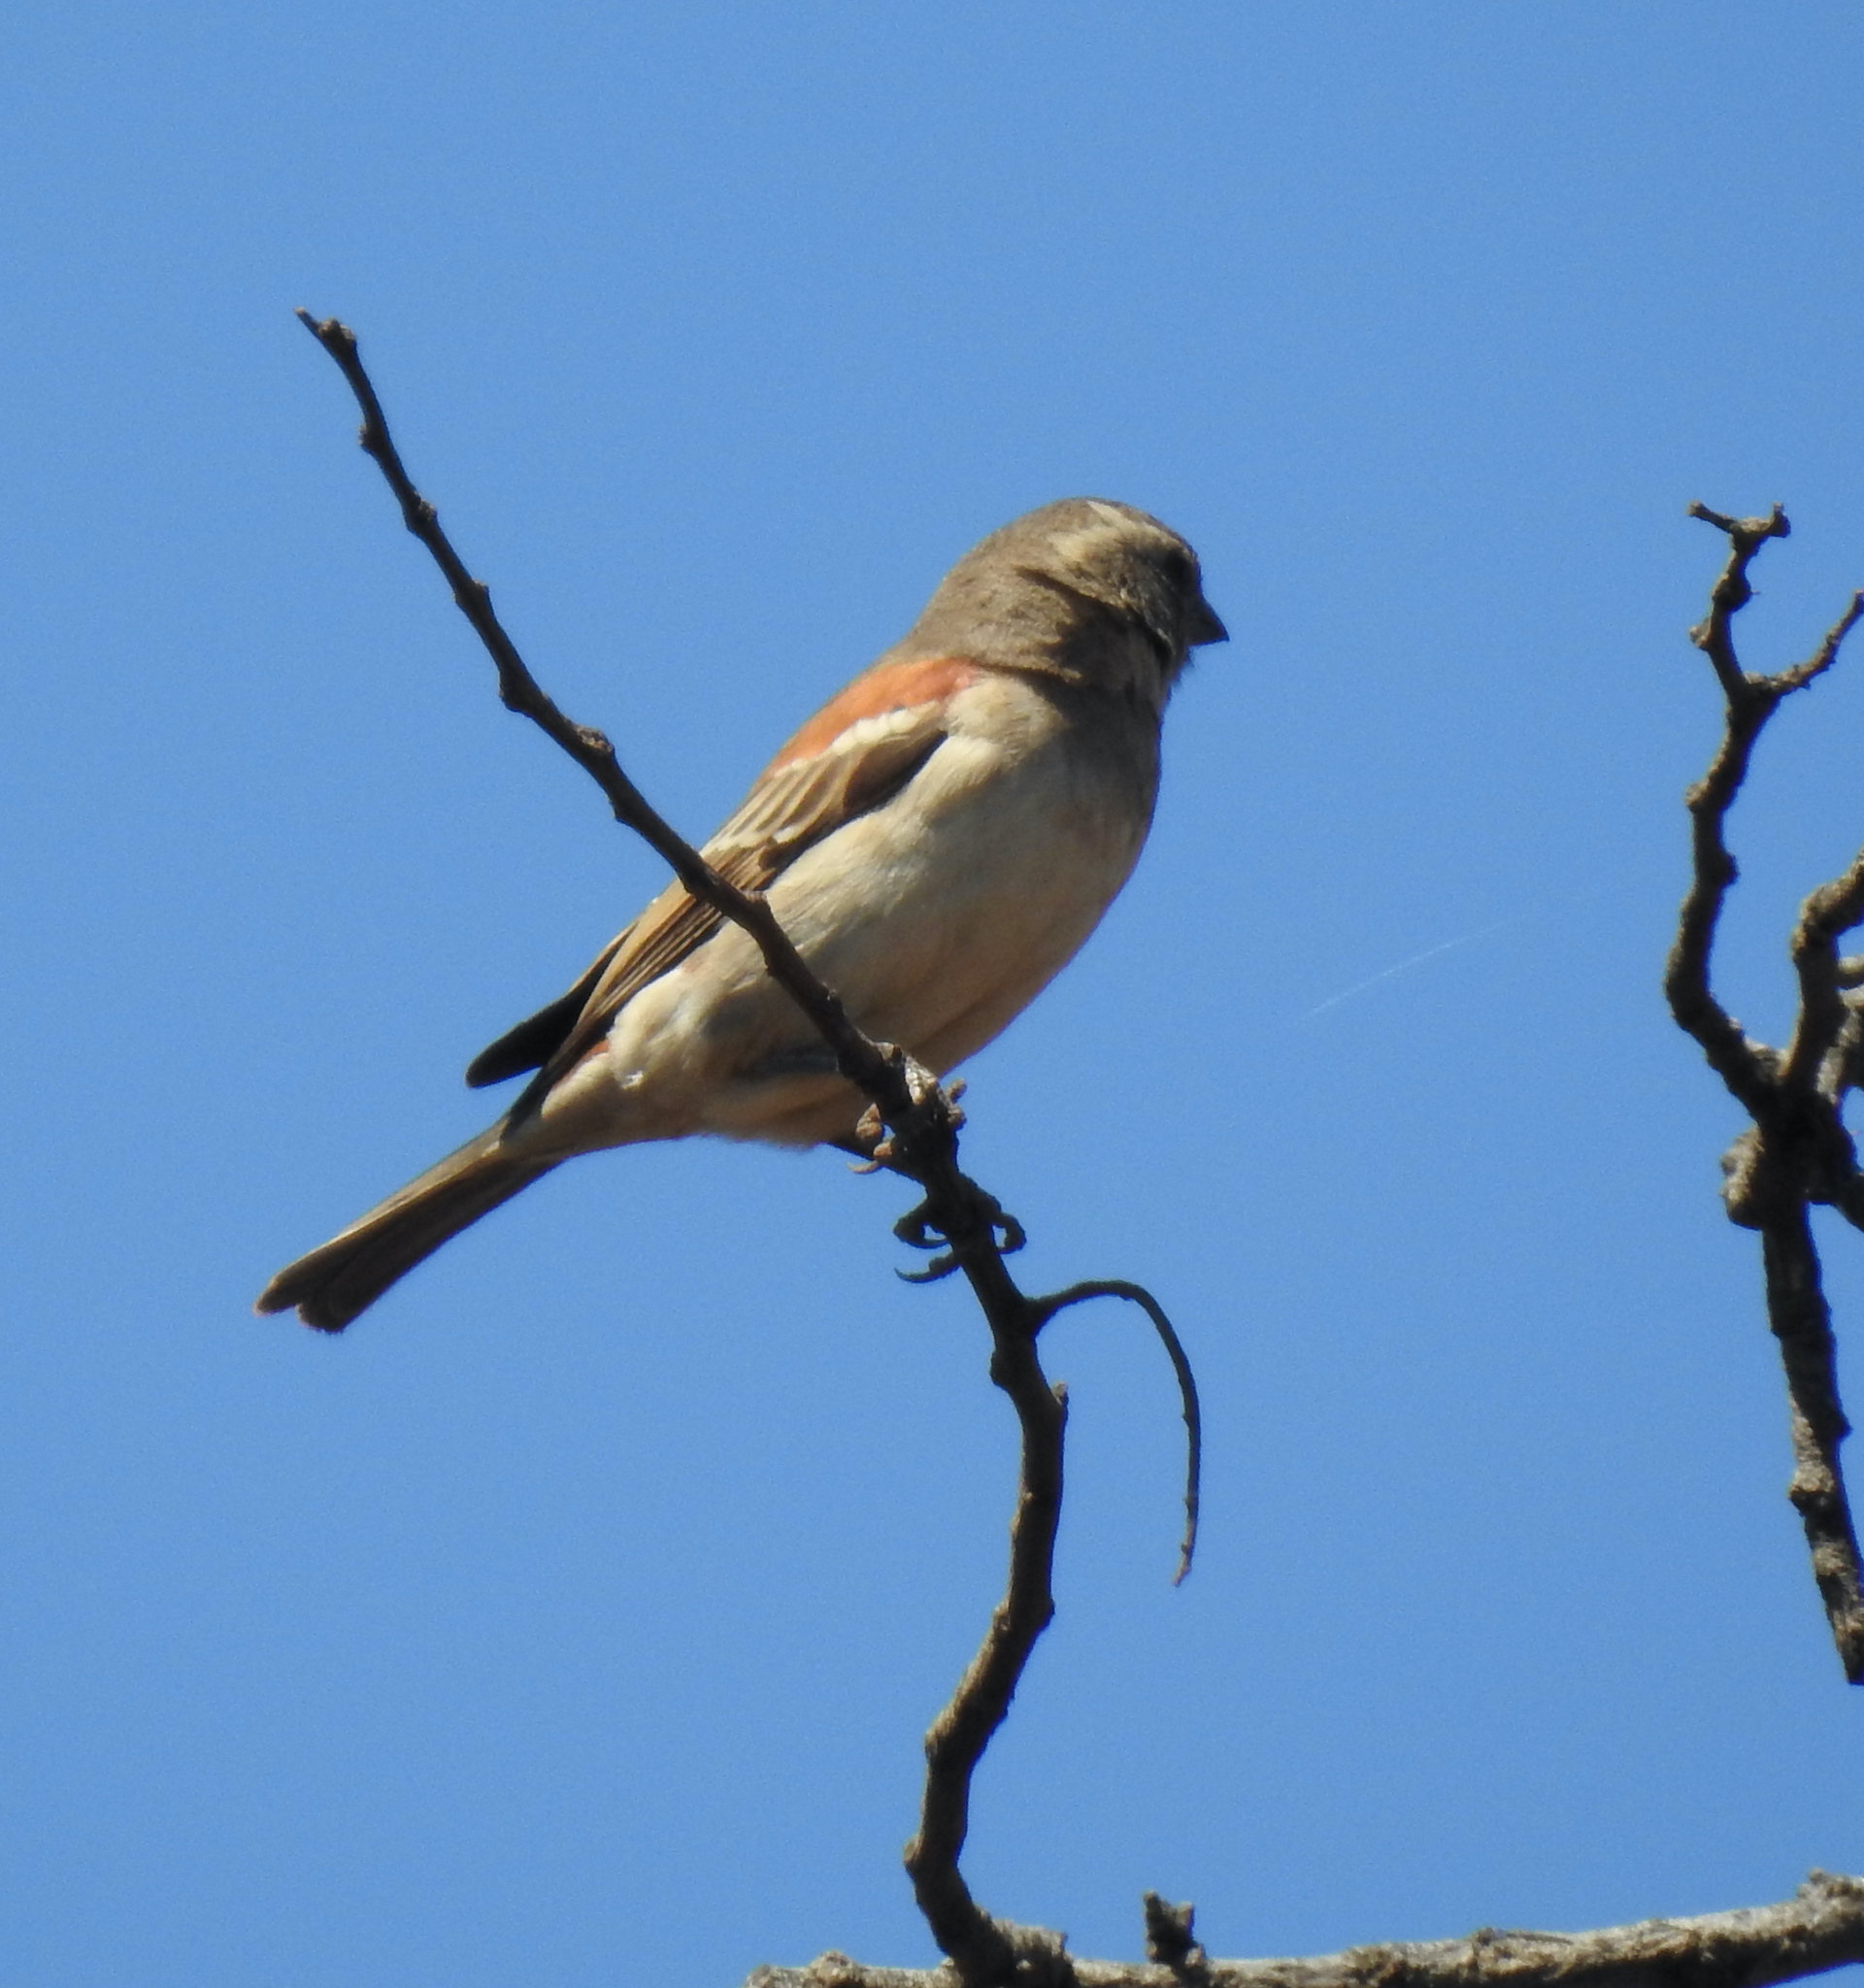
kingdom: Animalia
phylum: Chordata
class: Aves
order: Passeriformes
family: Passeridae
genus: Passer
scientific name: Passer melanurus
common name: Cape sparrow
